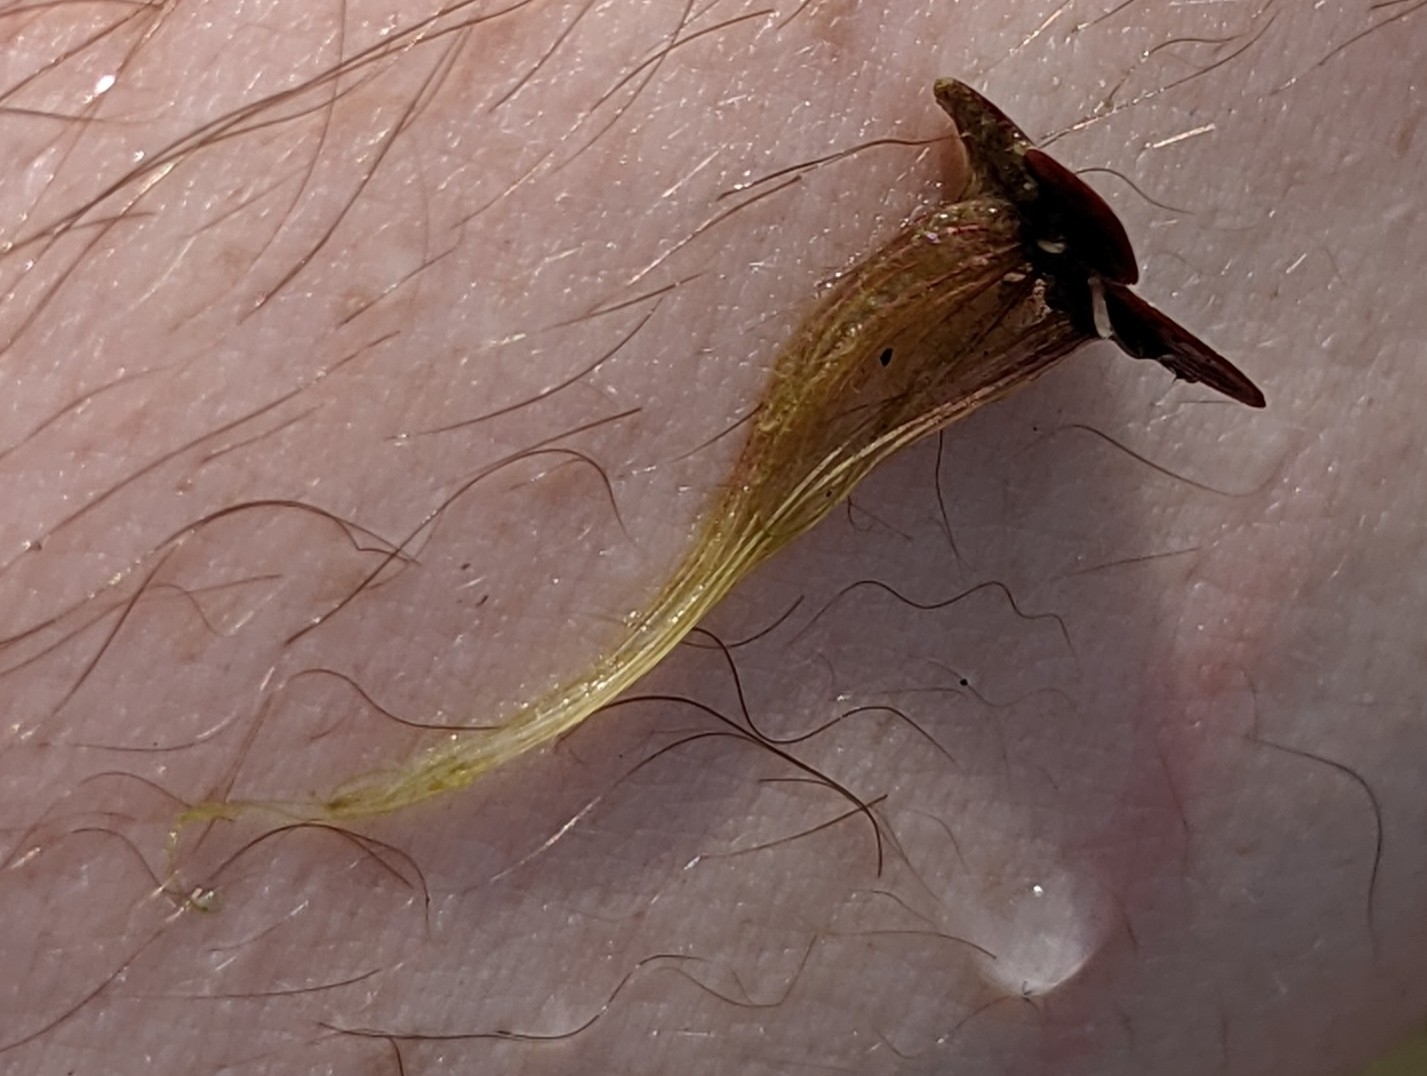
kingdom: Plantae
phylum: Tracheophyta
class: Liliopsida
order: Alismatales
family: Araceae
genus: Spirodela
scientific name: Spirodela polyrhiza
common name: Great duckweed
